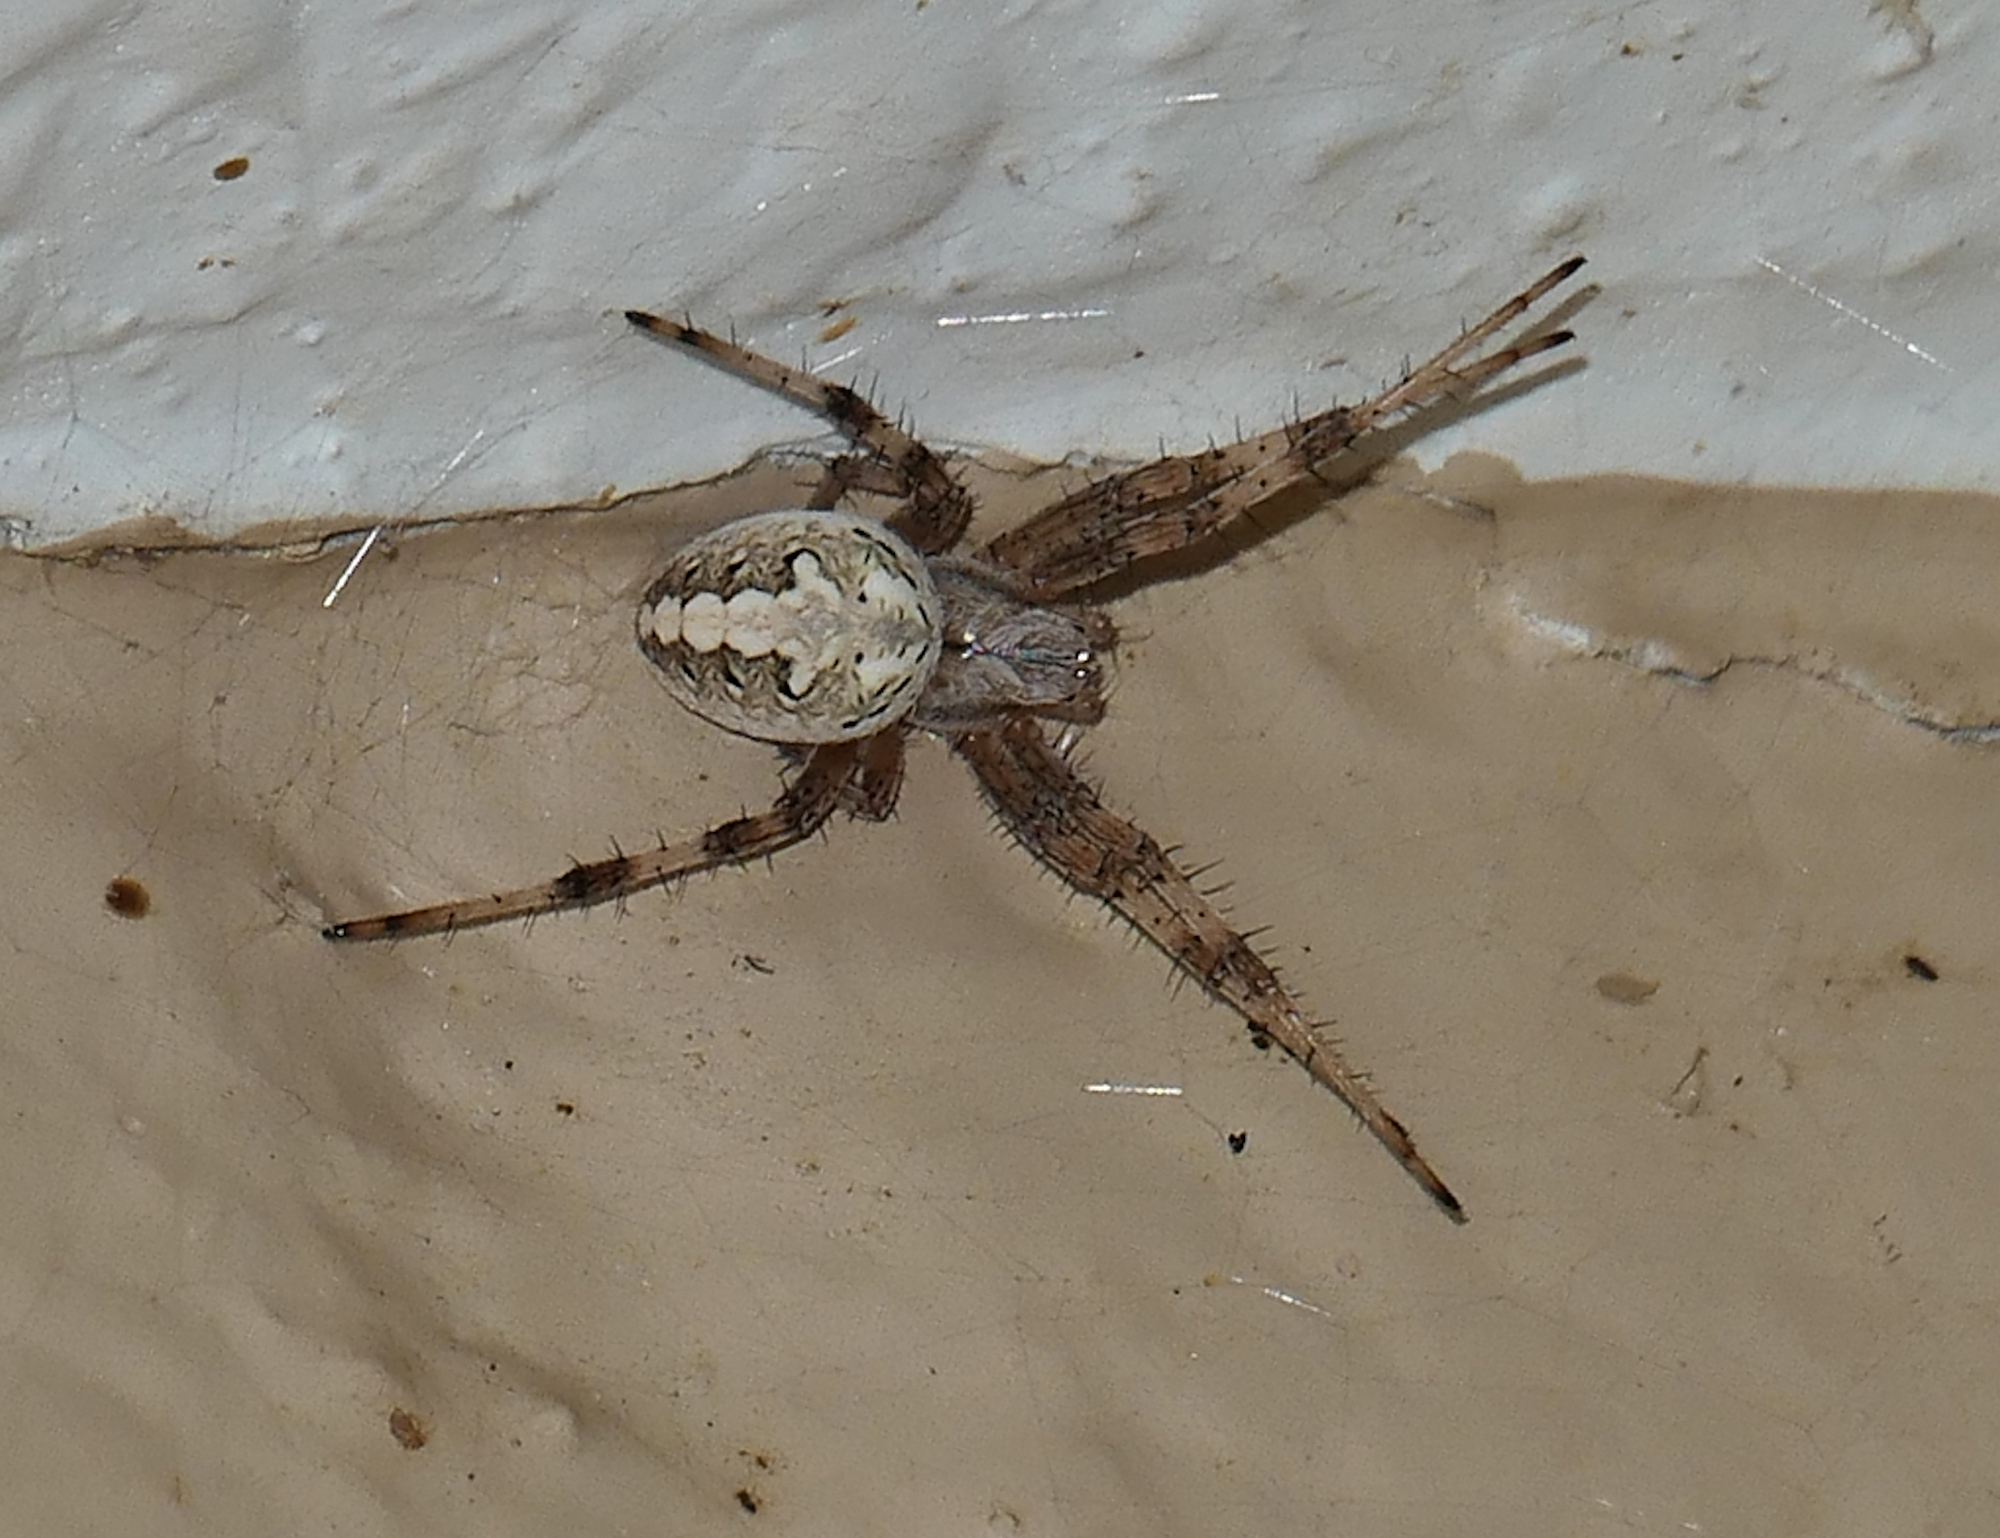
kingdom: Animalia
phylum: Arthropoda
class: Arachnida
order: Araneae
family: Araneidae
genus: Neoscona
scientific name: Neoscona oaxacensis
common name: Orb weavers
